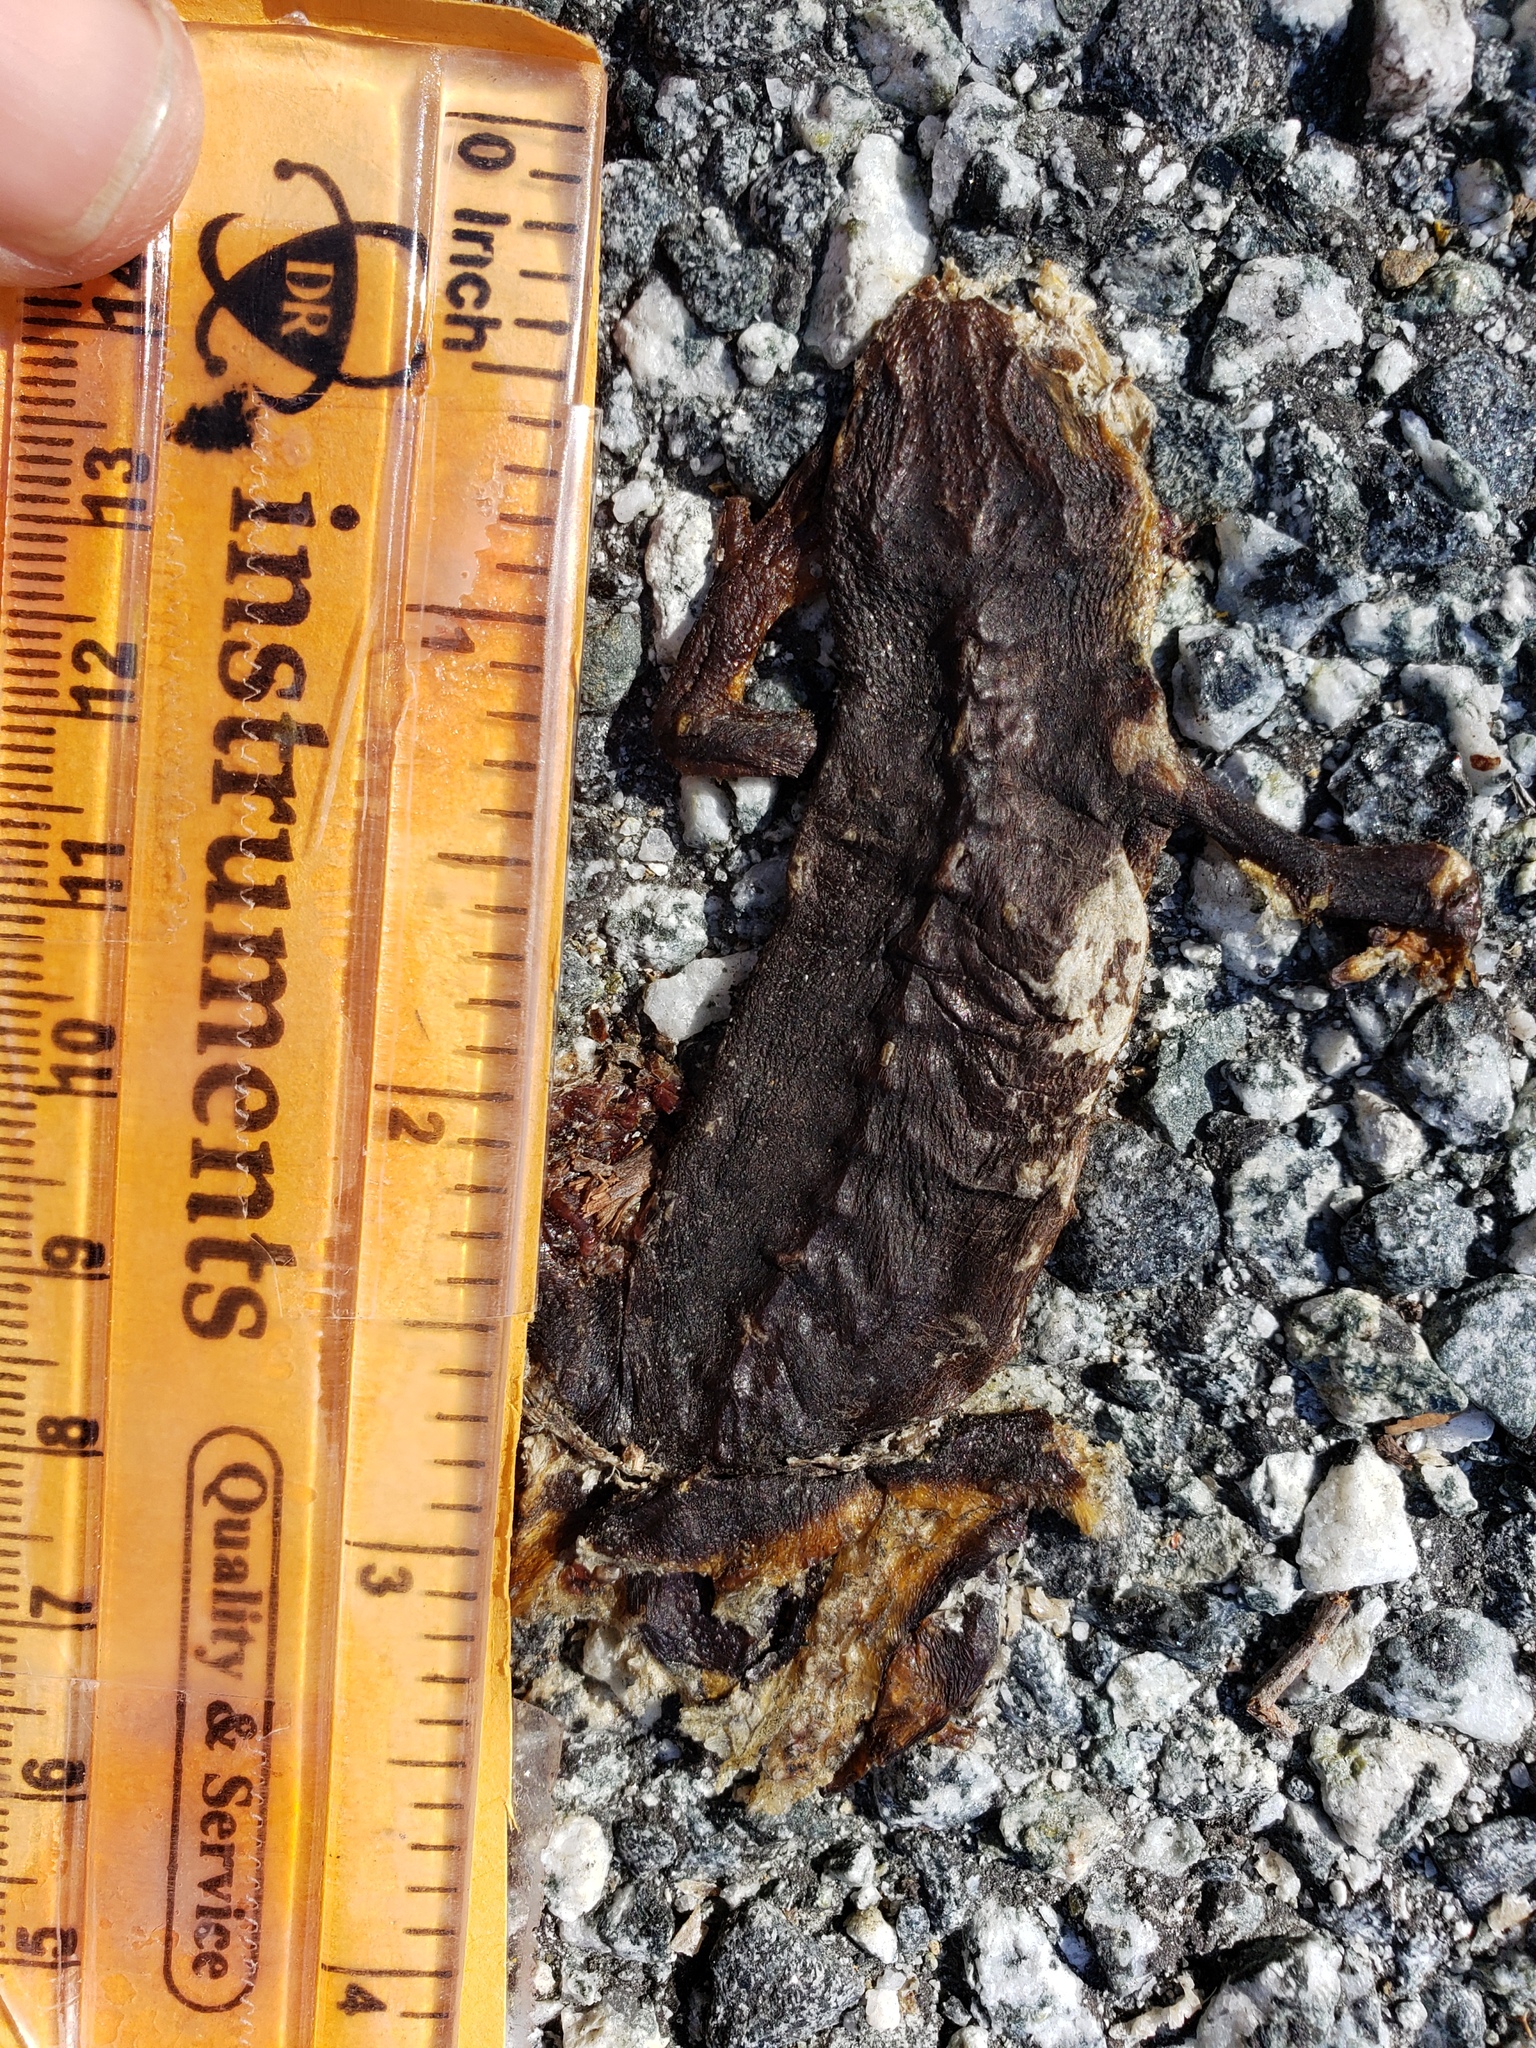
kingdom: Animalia
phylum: Chordata
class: Amphibia
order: Caudata
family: Salamandridae
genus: Taricha
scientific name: Taricha
